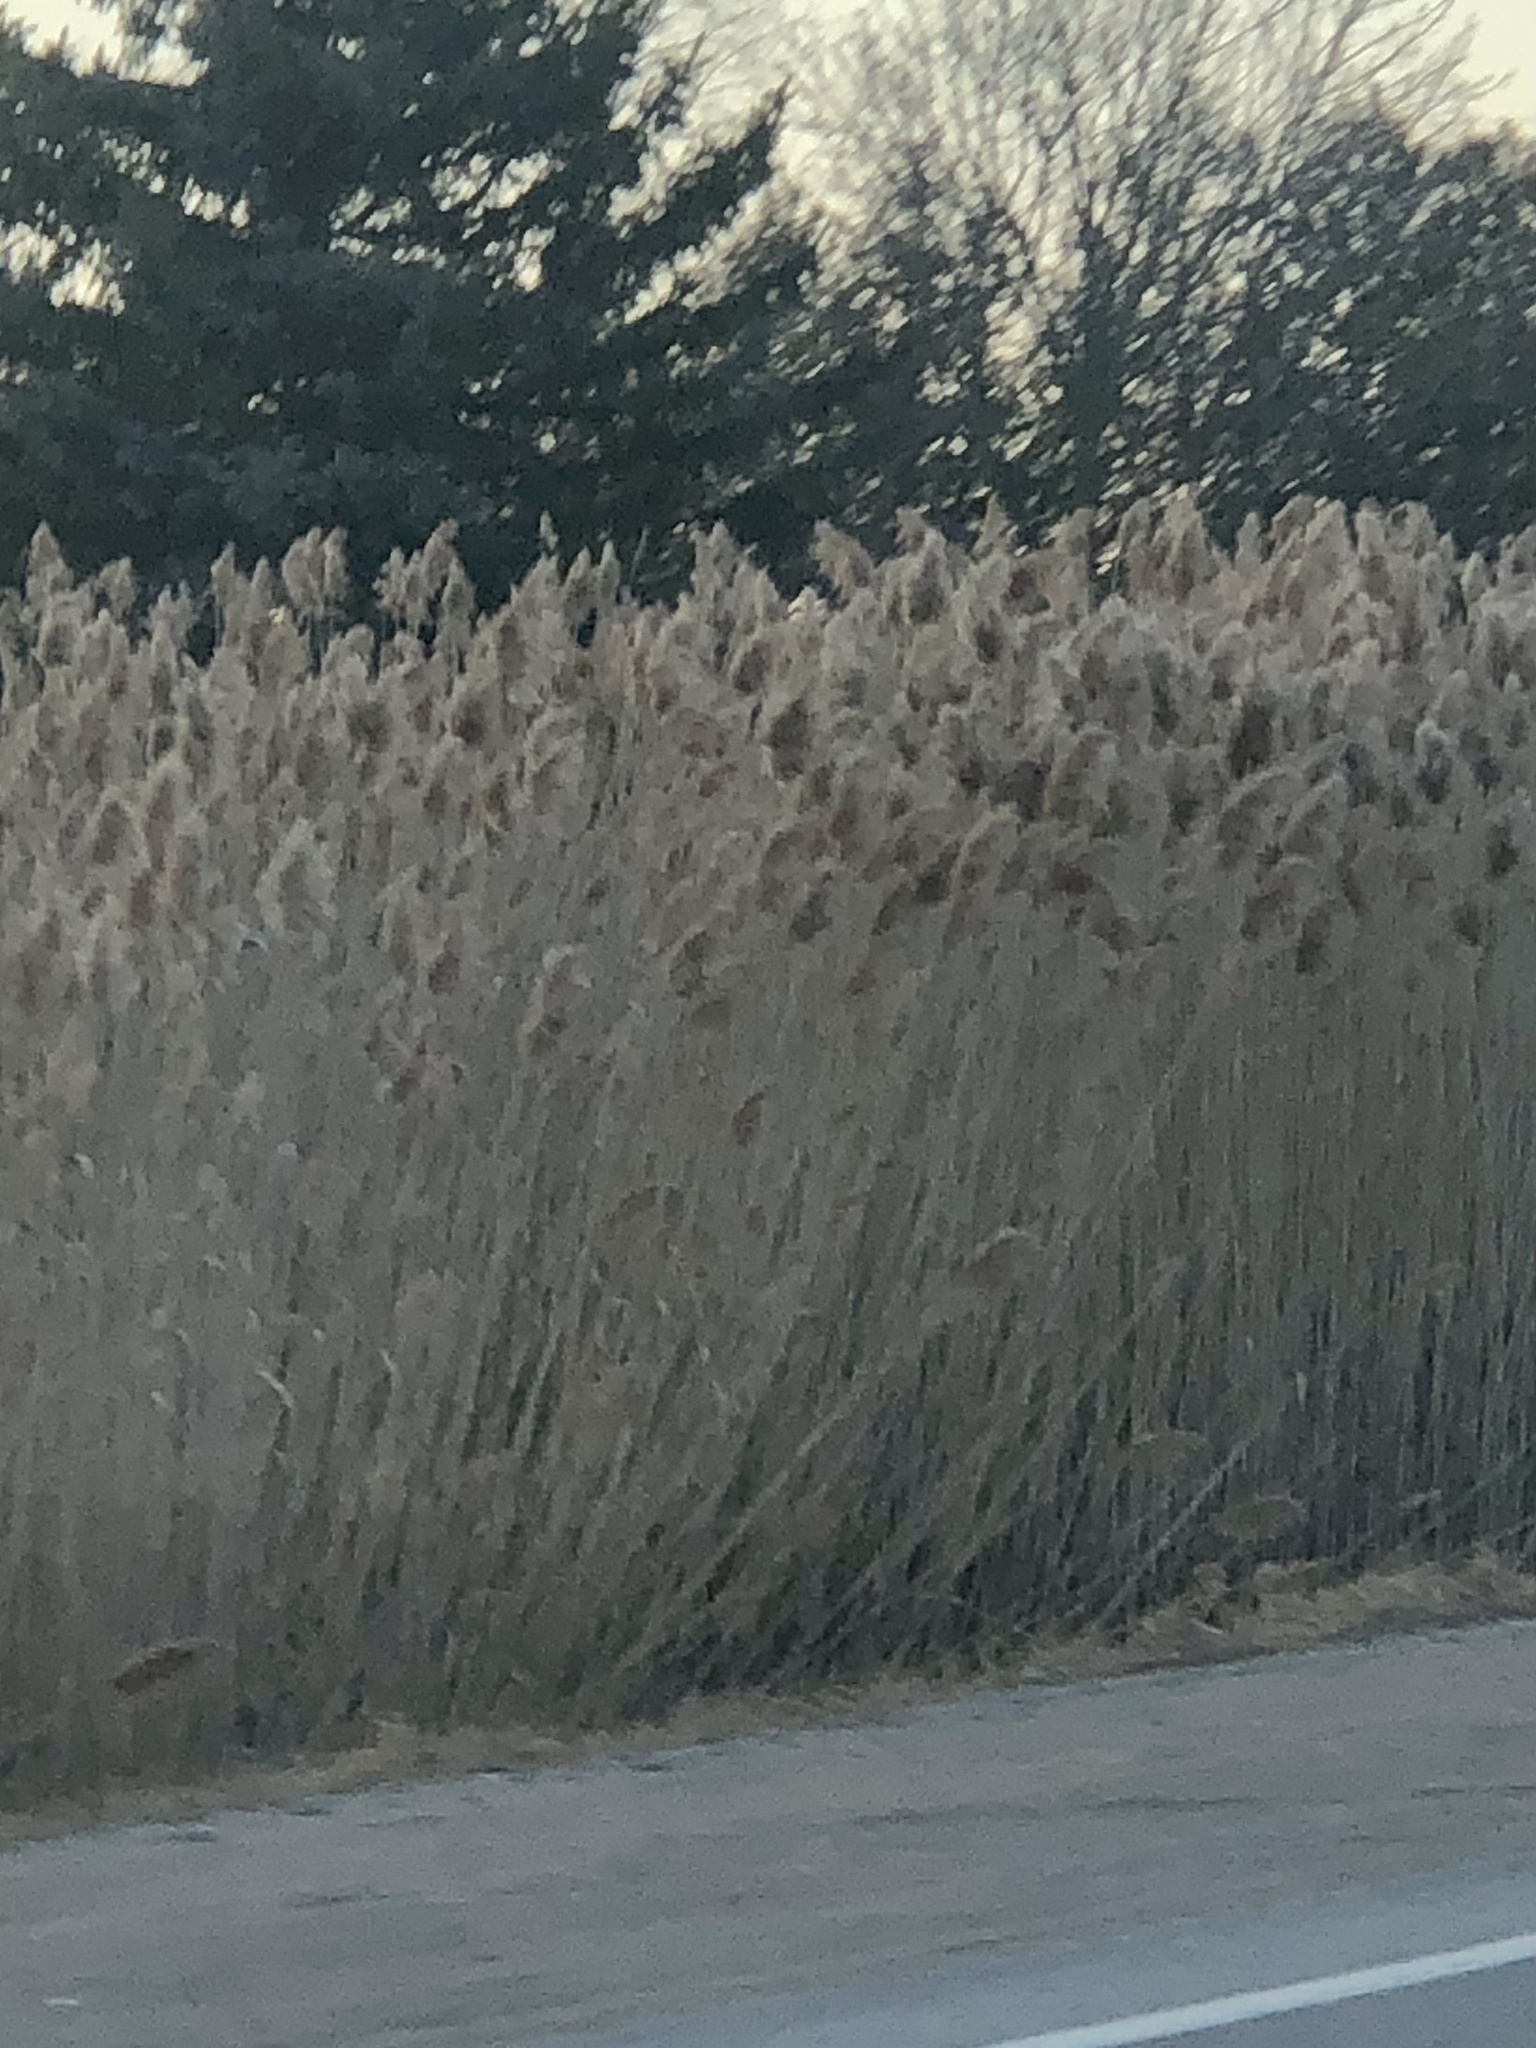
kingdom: Plantae
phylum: Tracheophyta
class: Liliopsida
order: Poales
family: Poaceae
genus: Phragmites
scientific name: Phragmites australis
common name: Common reed
